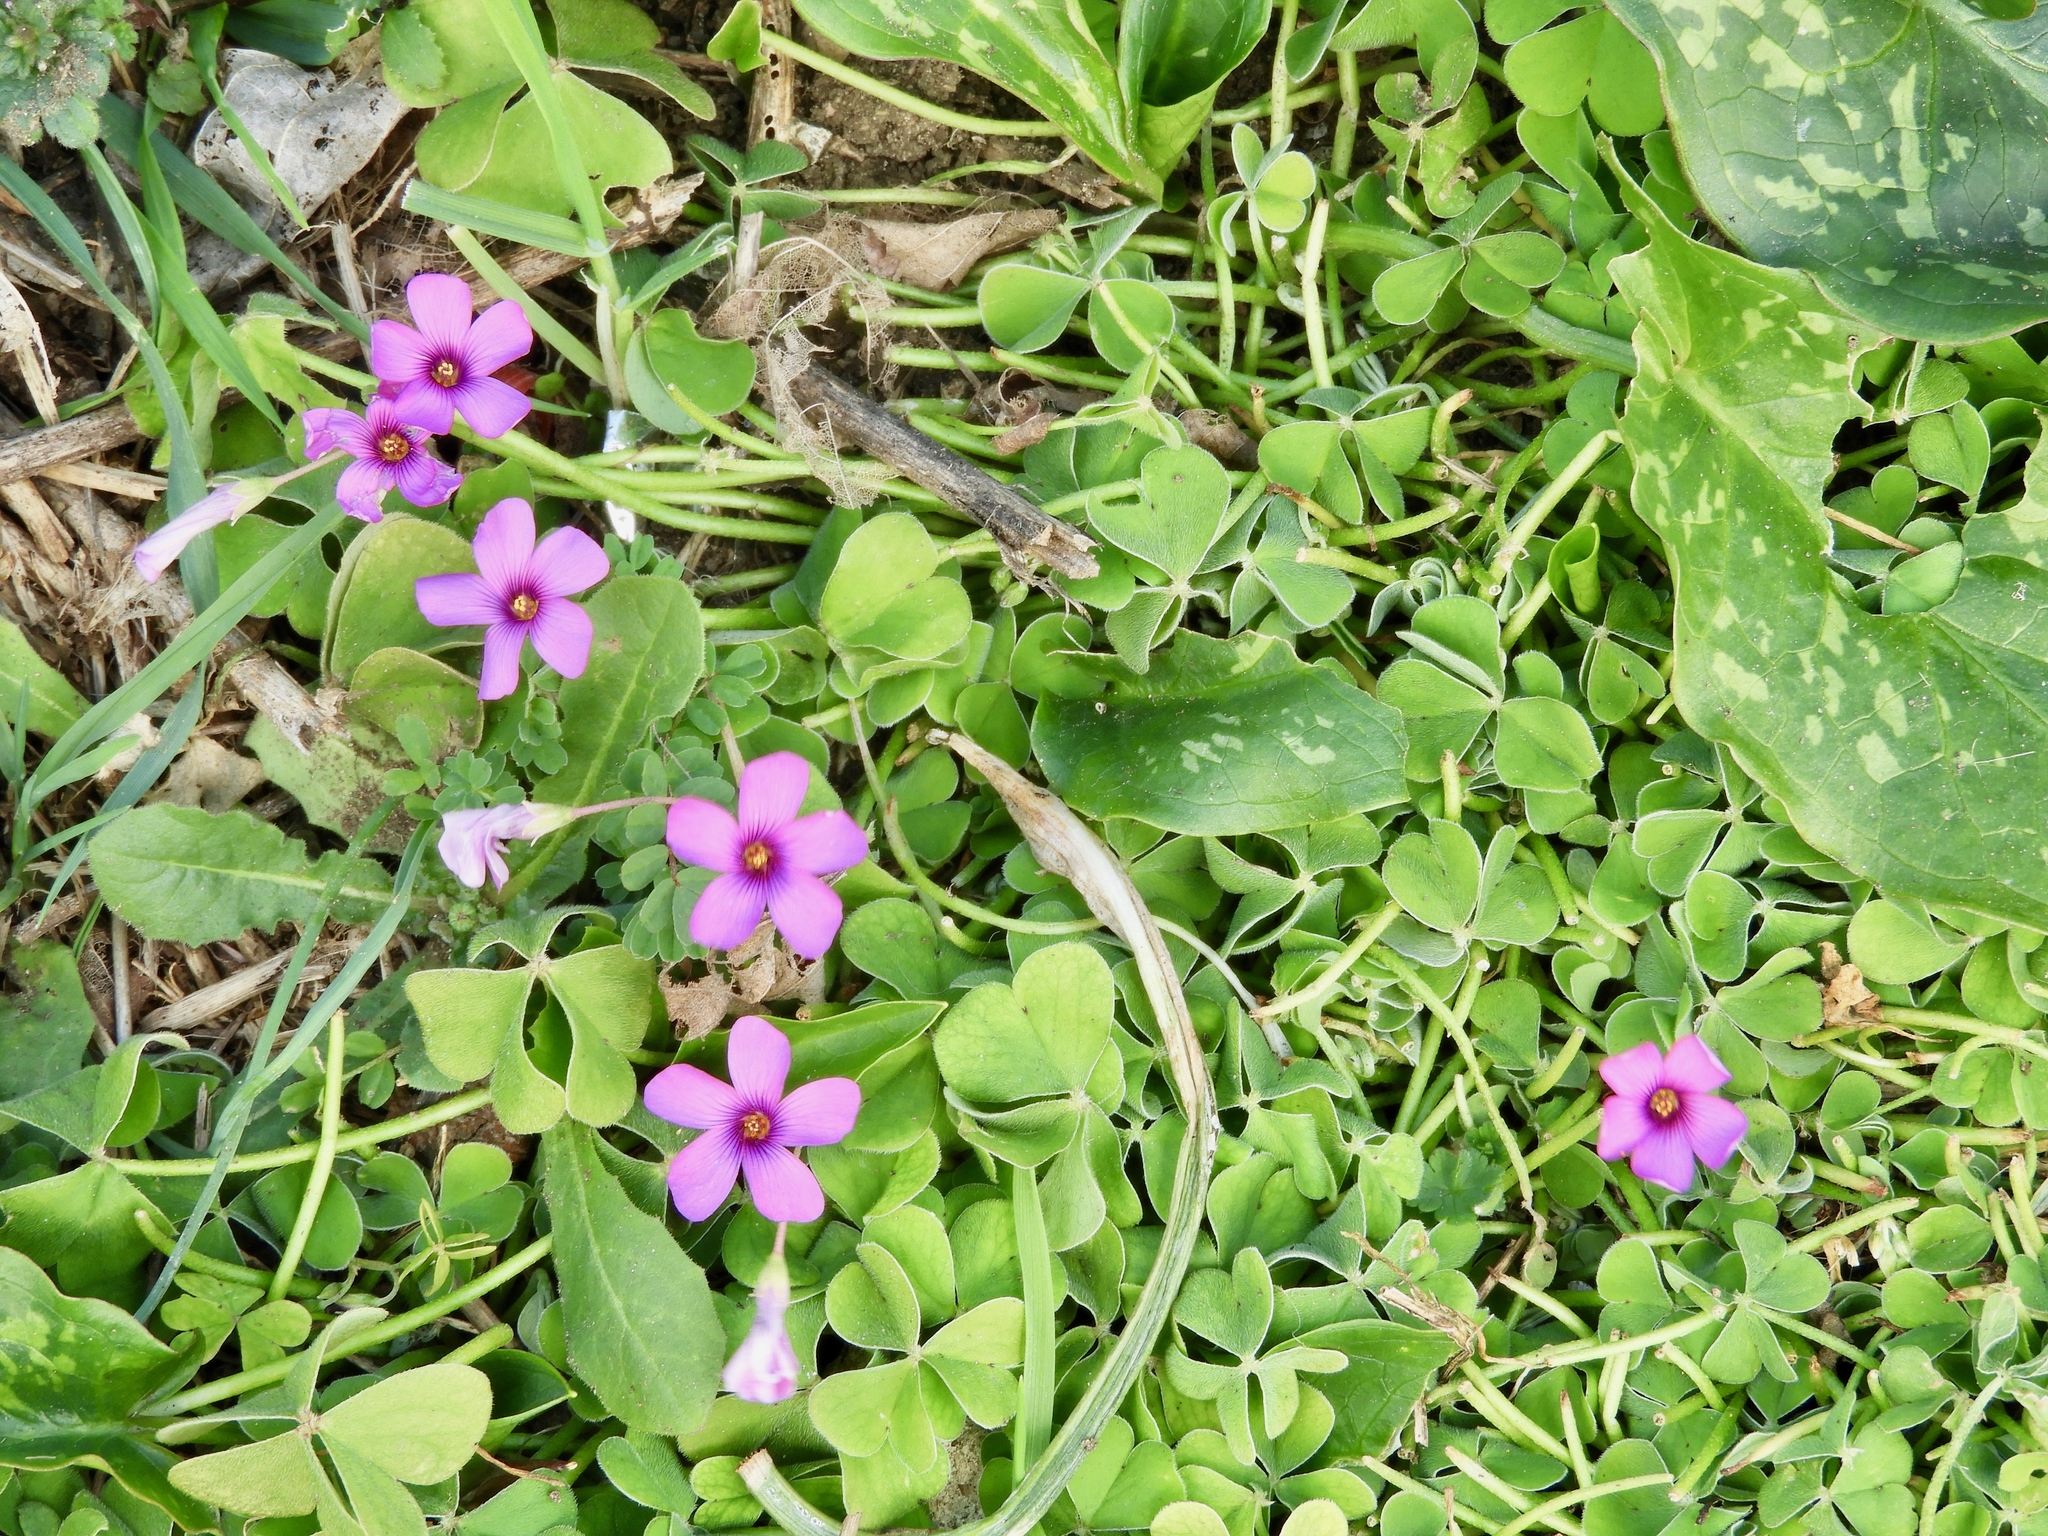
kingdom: Plantae
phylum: Tracheophyta
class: Magnoliopsida
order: Oxalidales
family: Oxalidaceae
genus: Oxalis
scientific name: Oxalis articulata
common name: Pink-sorrel
